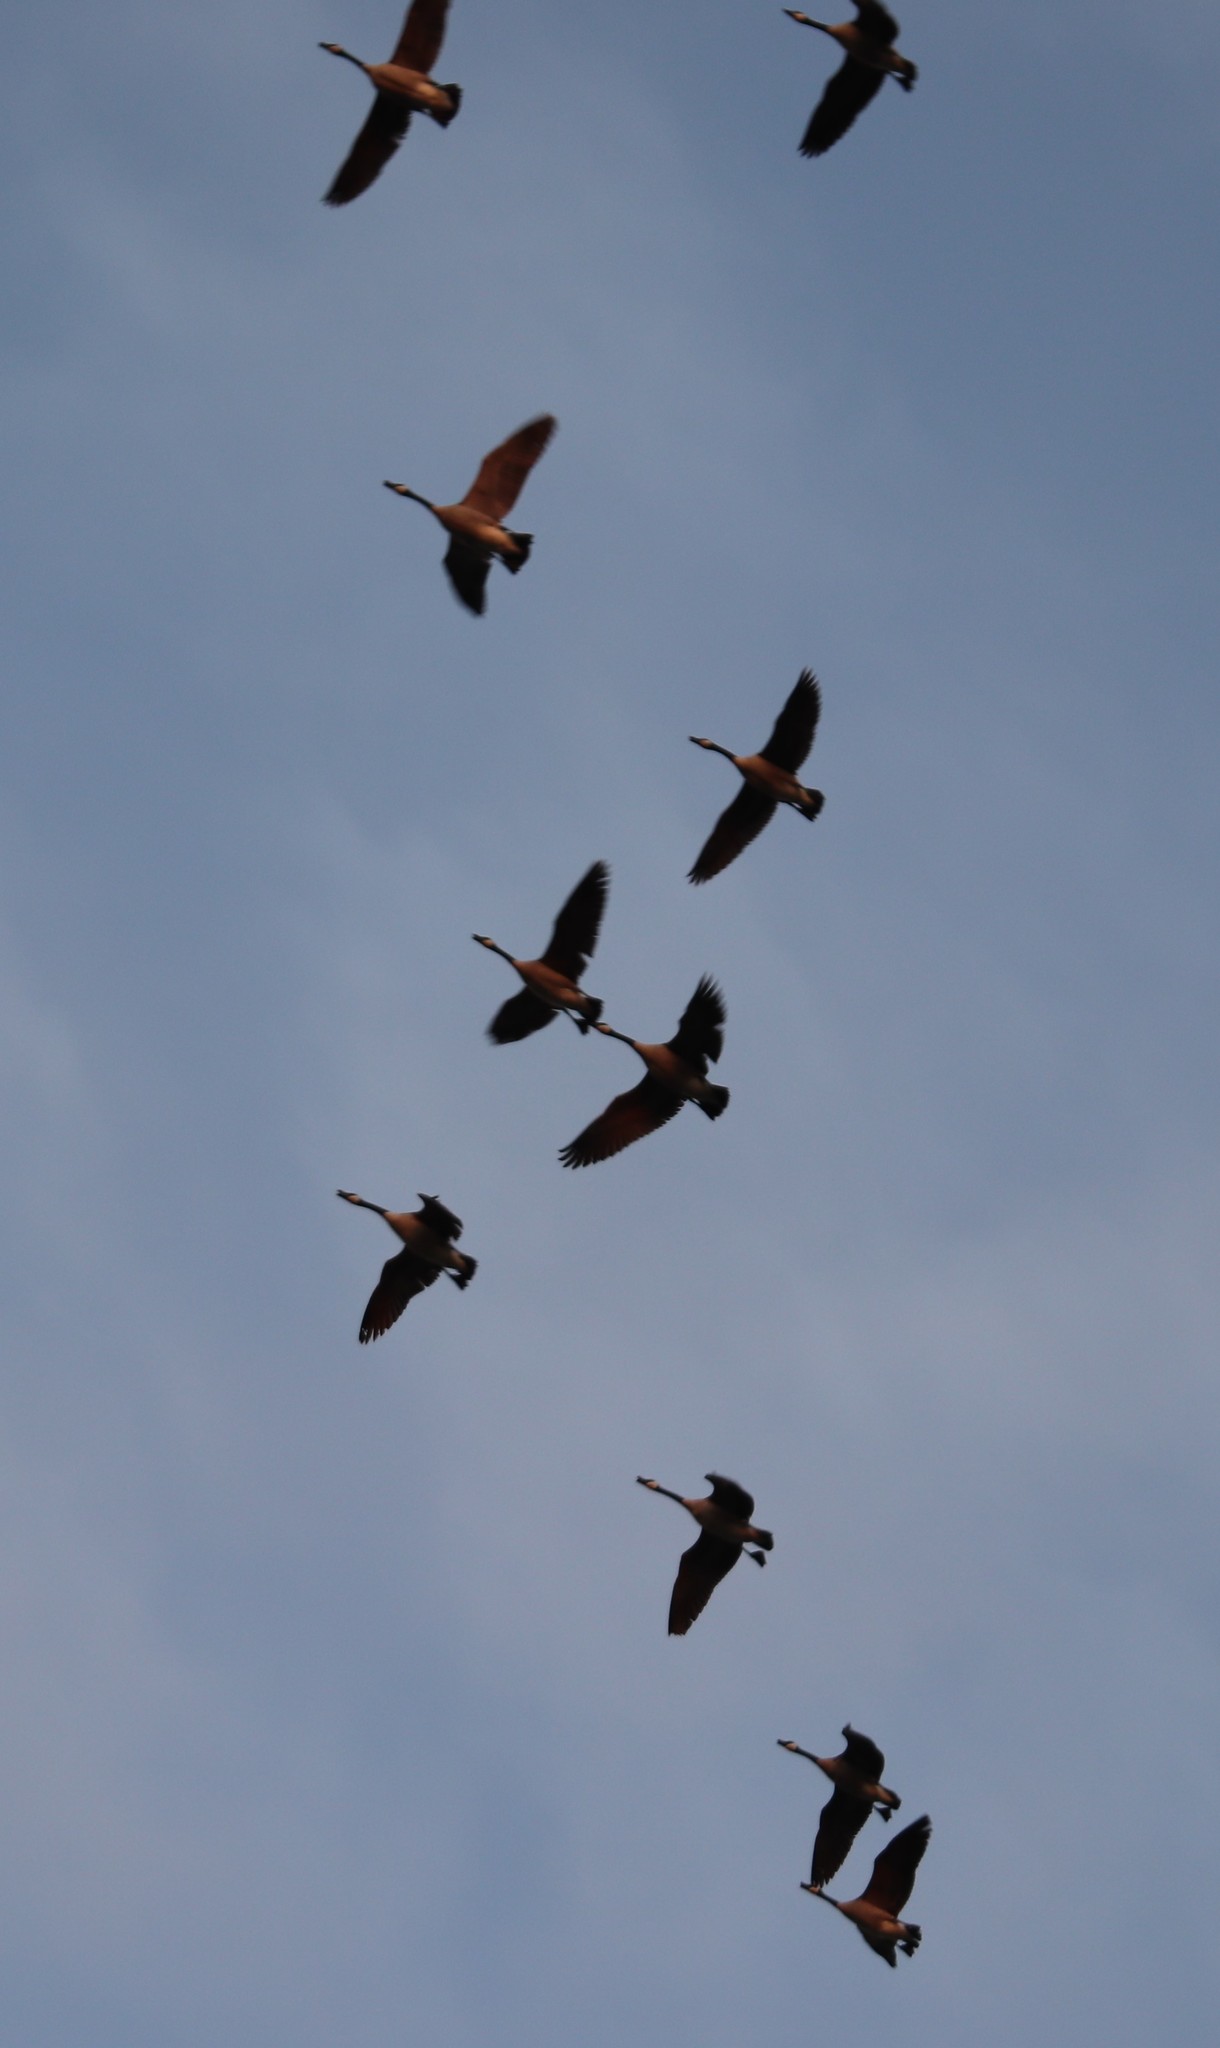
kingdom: Animalia
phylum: Chordata
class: Aves
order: Anseriformes
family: Anatidae
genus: Branta
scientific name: Branta canadensis
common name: Canada goose
